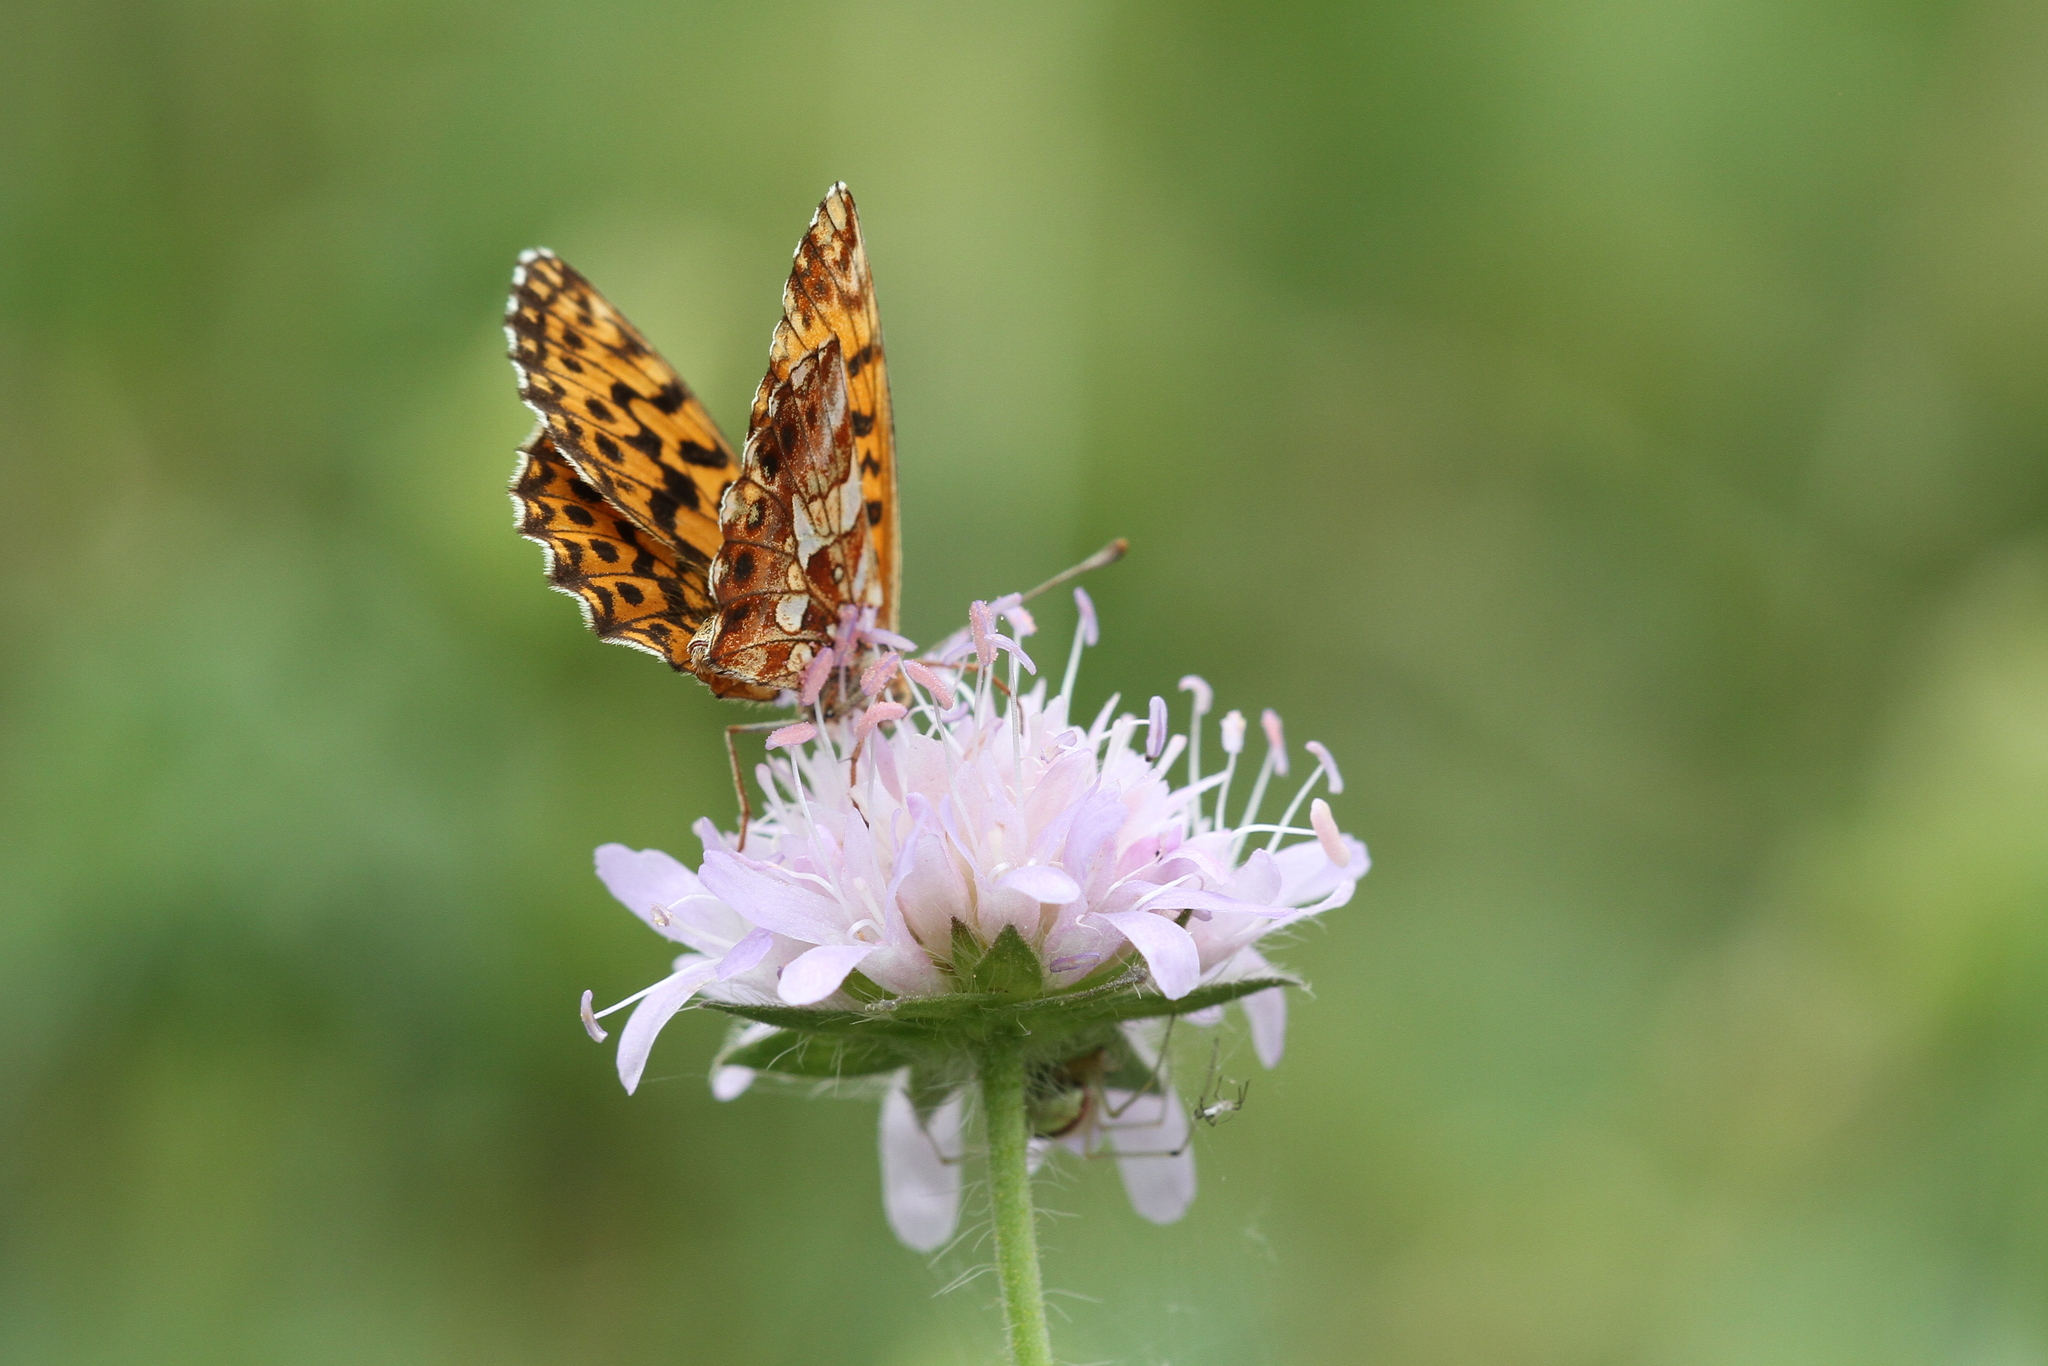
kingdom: Animalia
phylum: Arthropoda
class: Insecta
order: Lepidoptera
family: Nymphalidae
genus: Boloria
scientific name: Boloria dia
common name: Weaver's fritillary
